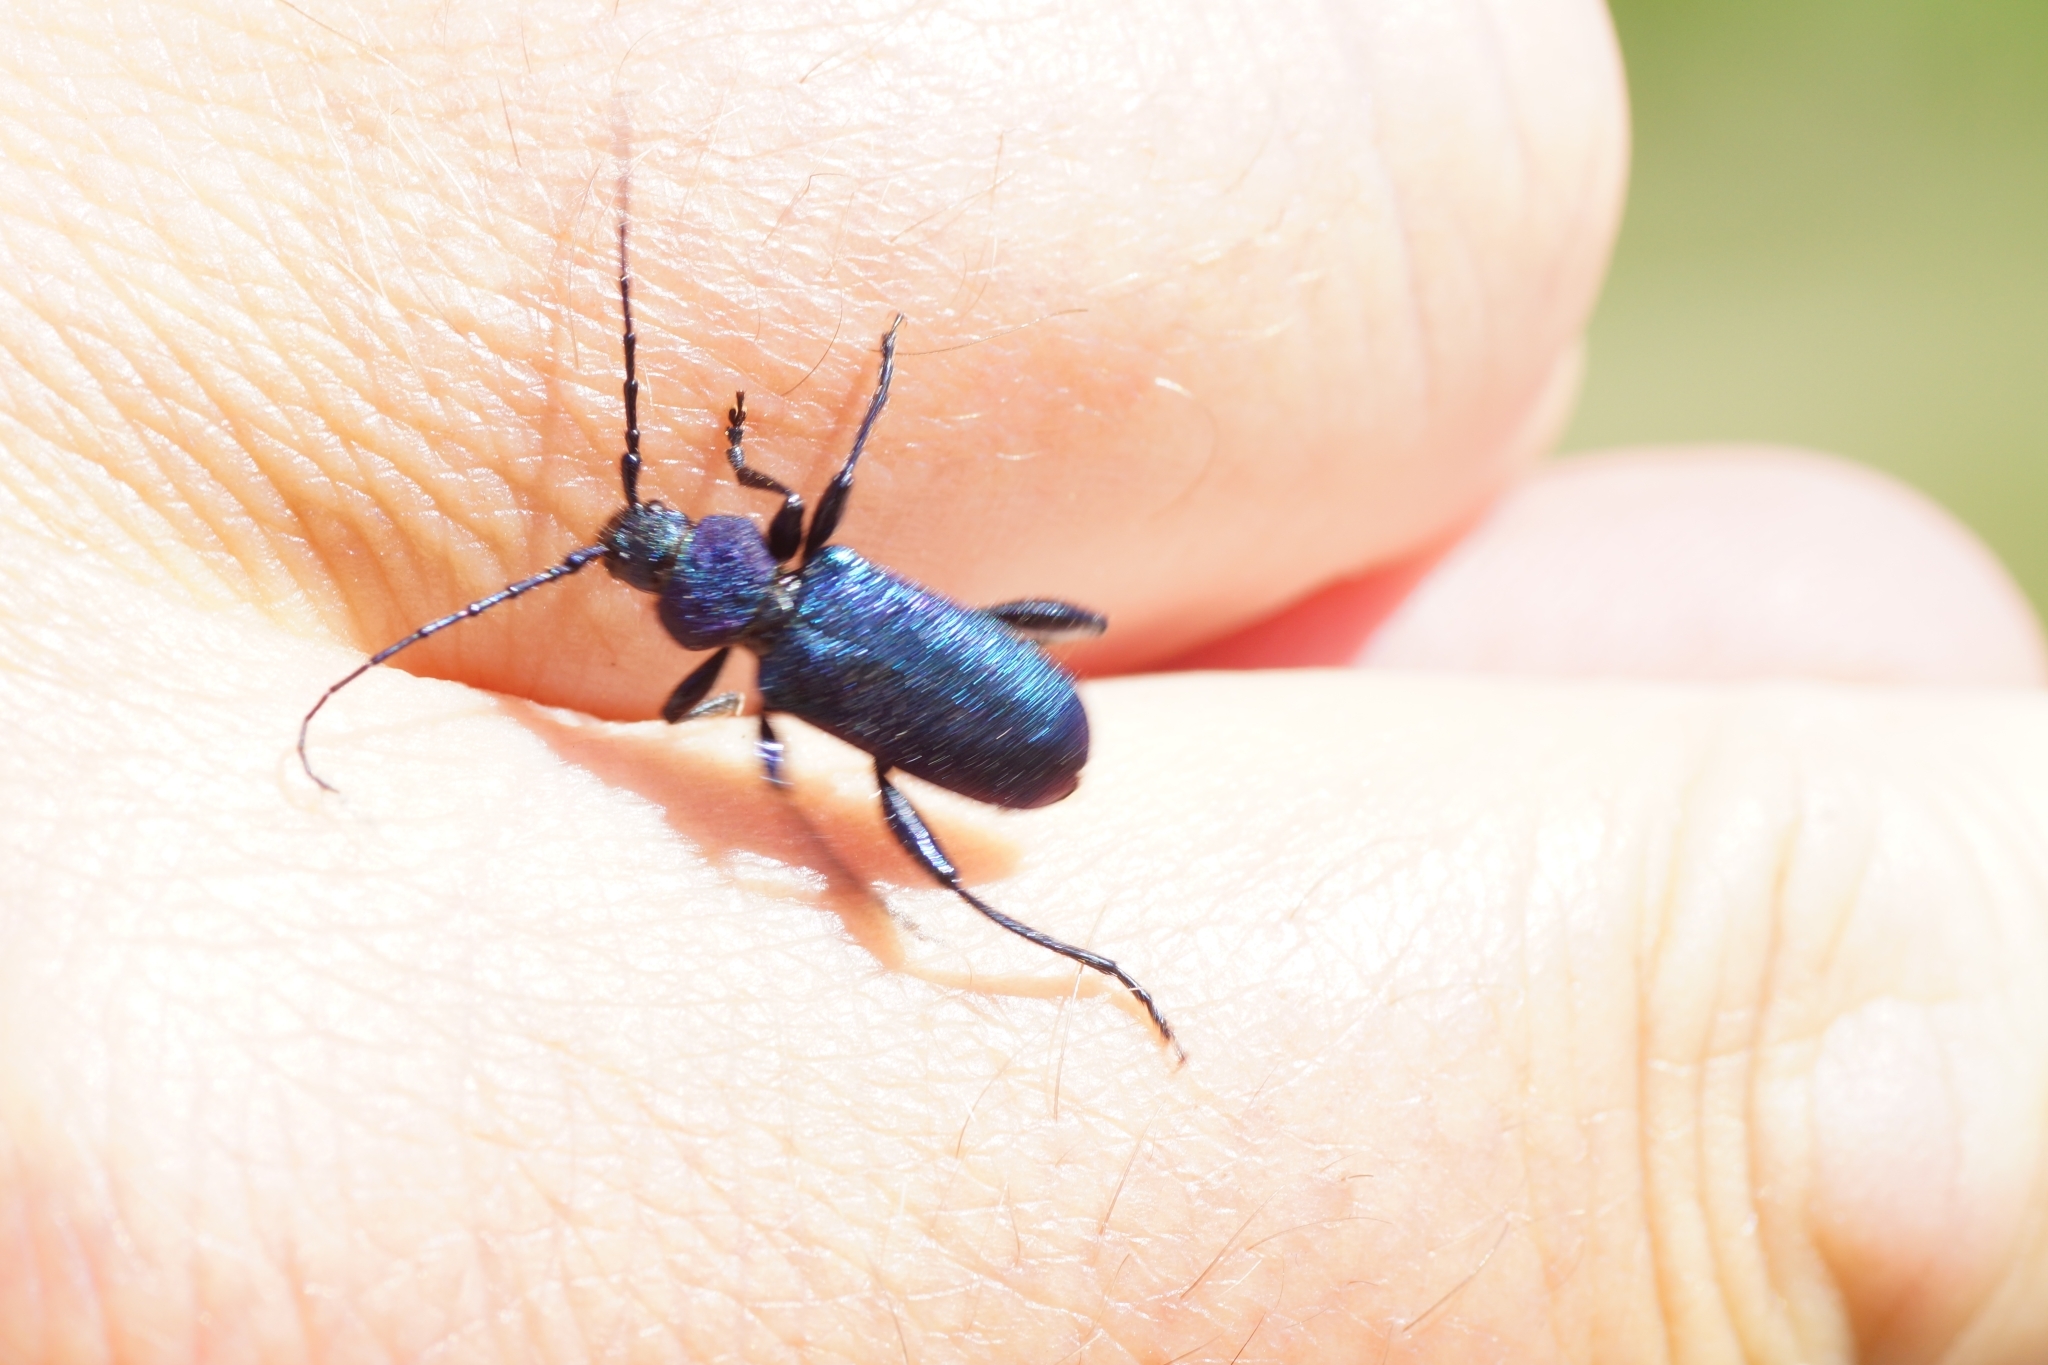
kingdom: Animalia
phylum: Arthropoda
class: Insecta
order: Coleoptera
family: Cerambycidae
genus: Callidium
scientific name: Callidium violaceum
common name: Violet tanbark beetle
